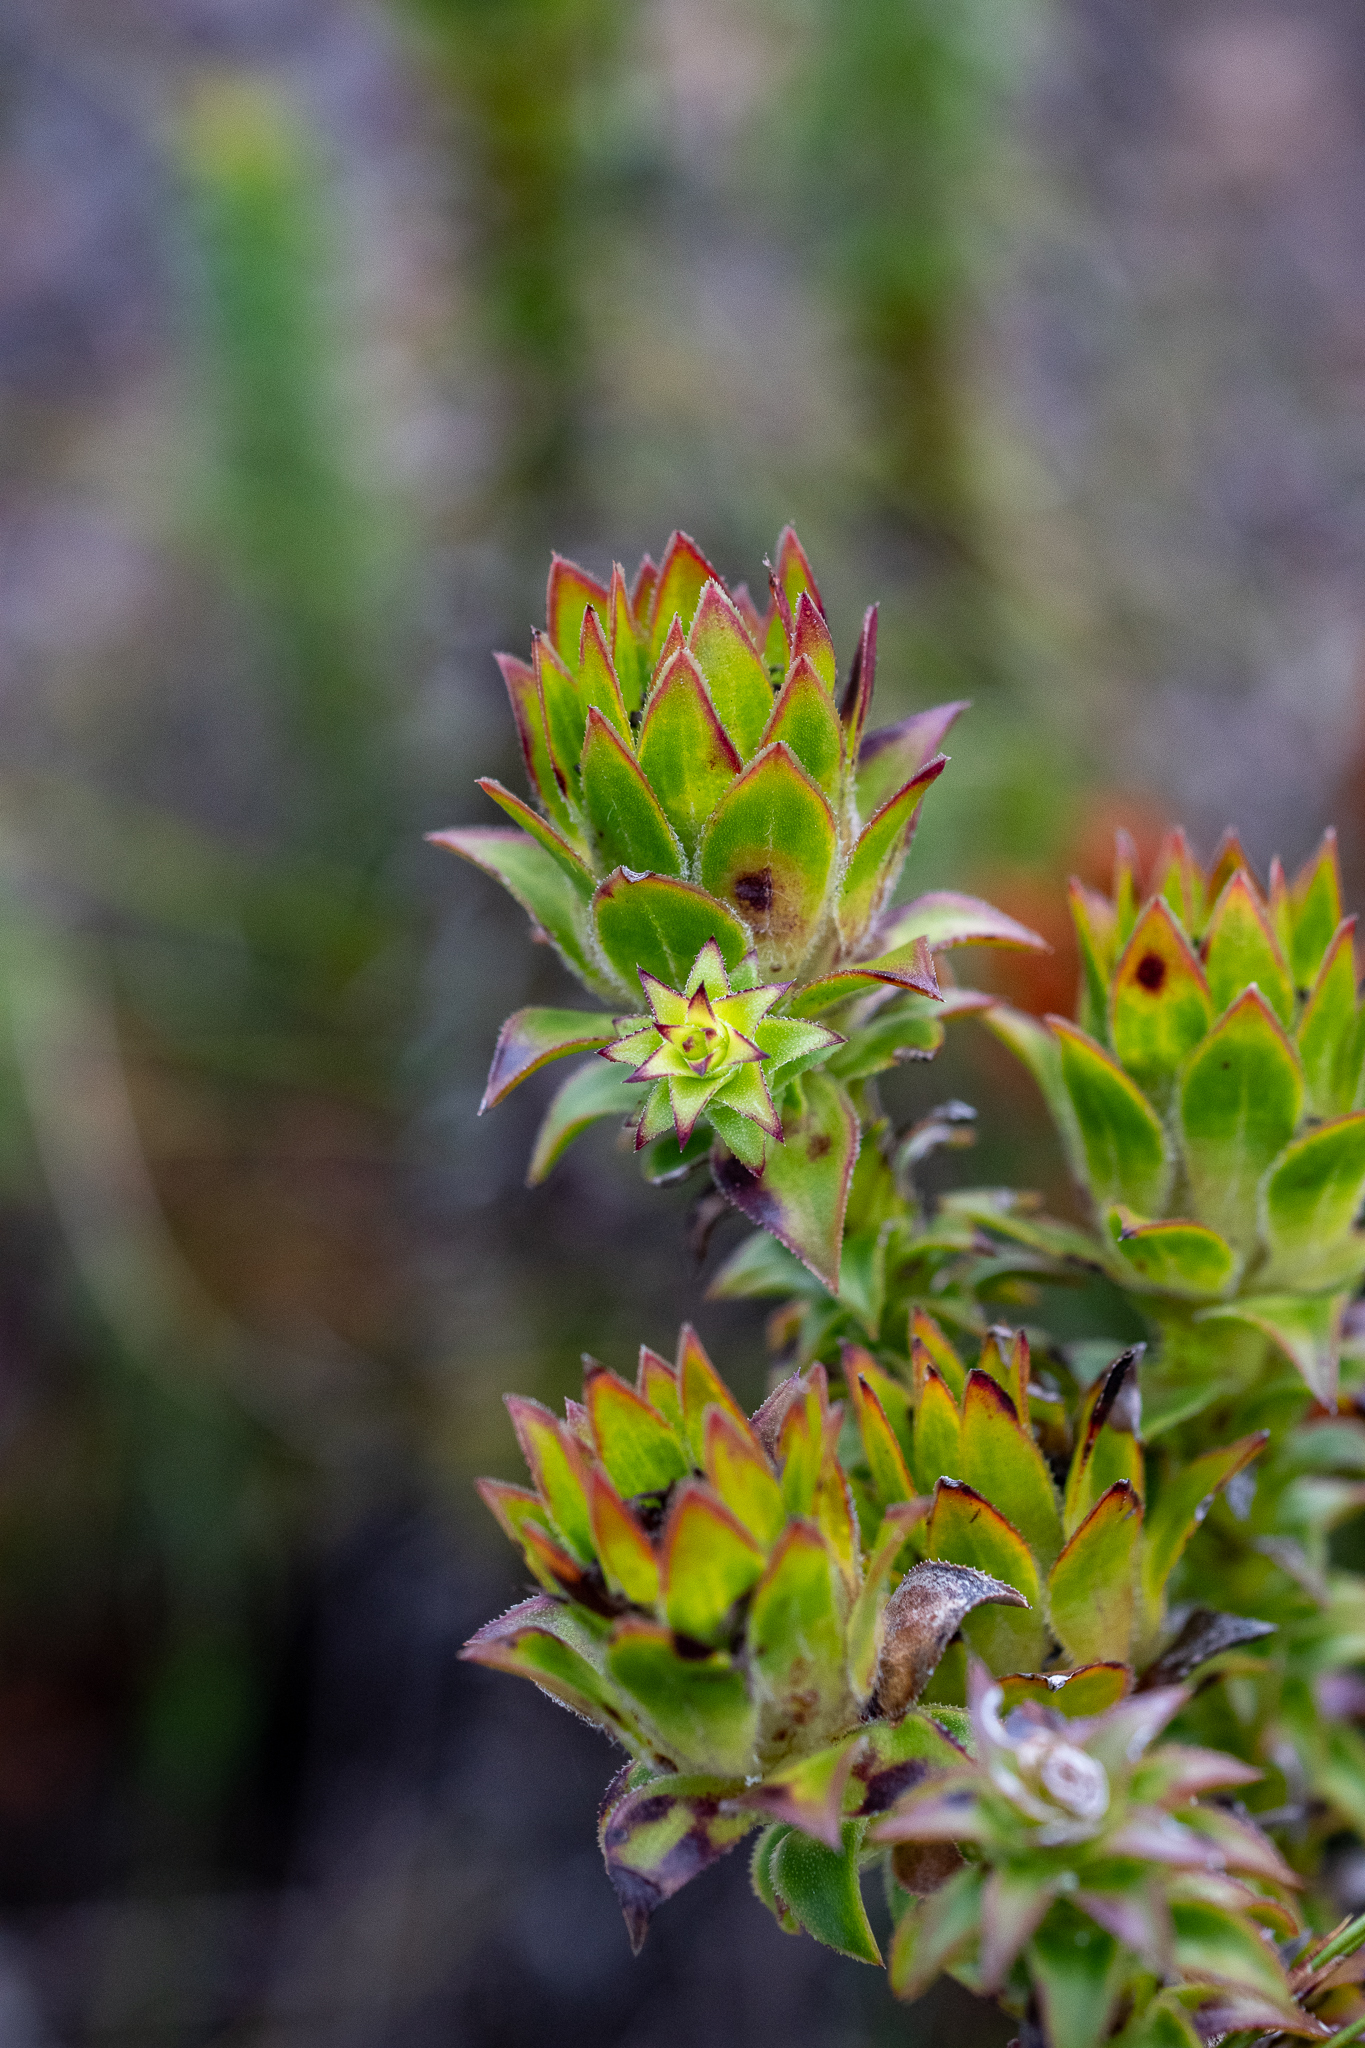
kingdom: Plantae
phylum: Tracheophyta
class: Magnoliopsida
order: Asterales
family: Asteraceae
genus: Oedera
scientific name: Oedera imbricata
